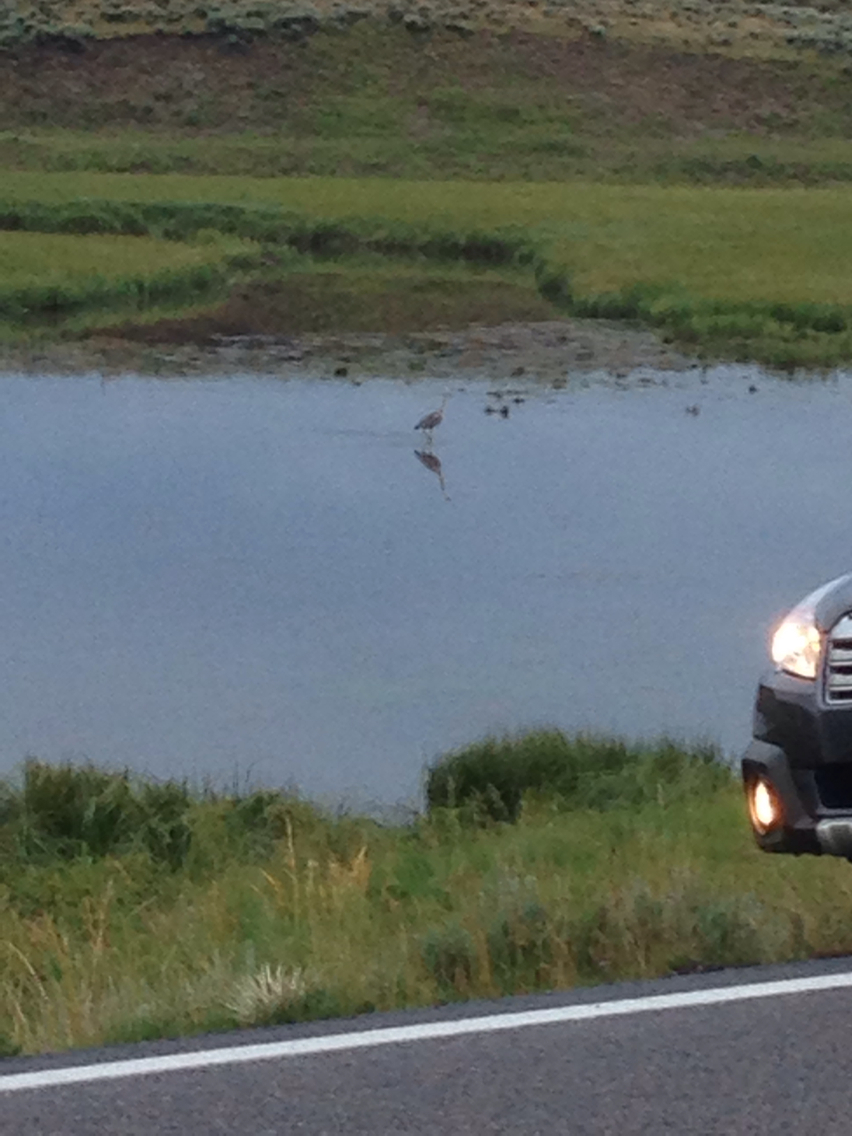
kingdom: Animalia
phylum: Chordata
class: Aves
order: Pelecaniformes
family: Ardeidae
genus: Ardea
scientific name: Ardea herodias
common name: Great blue heron
